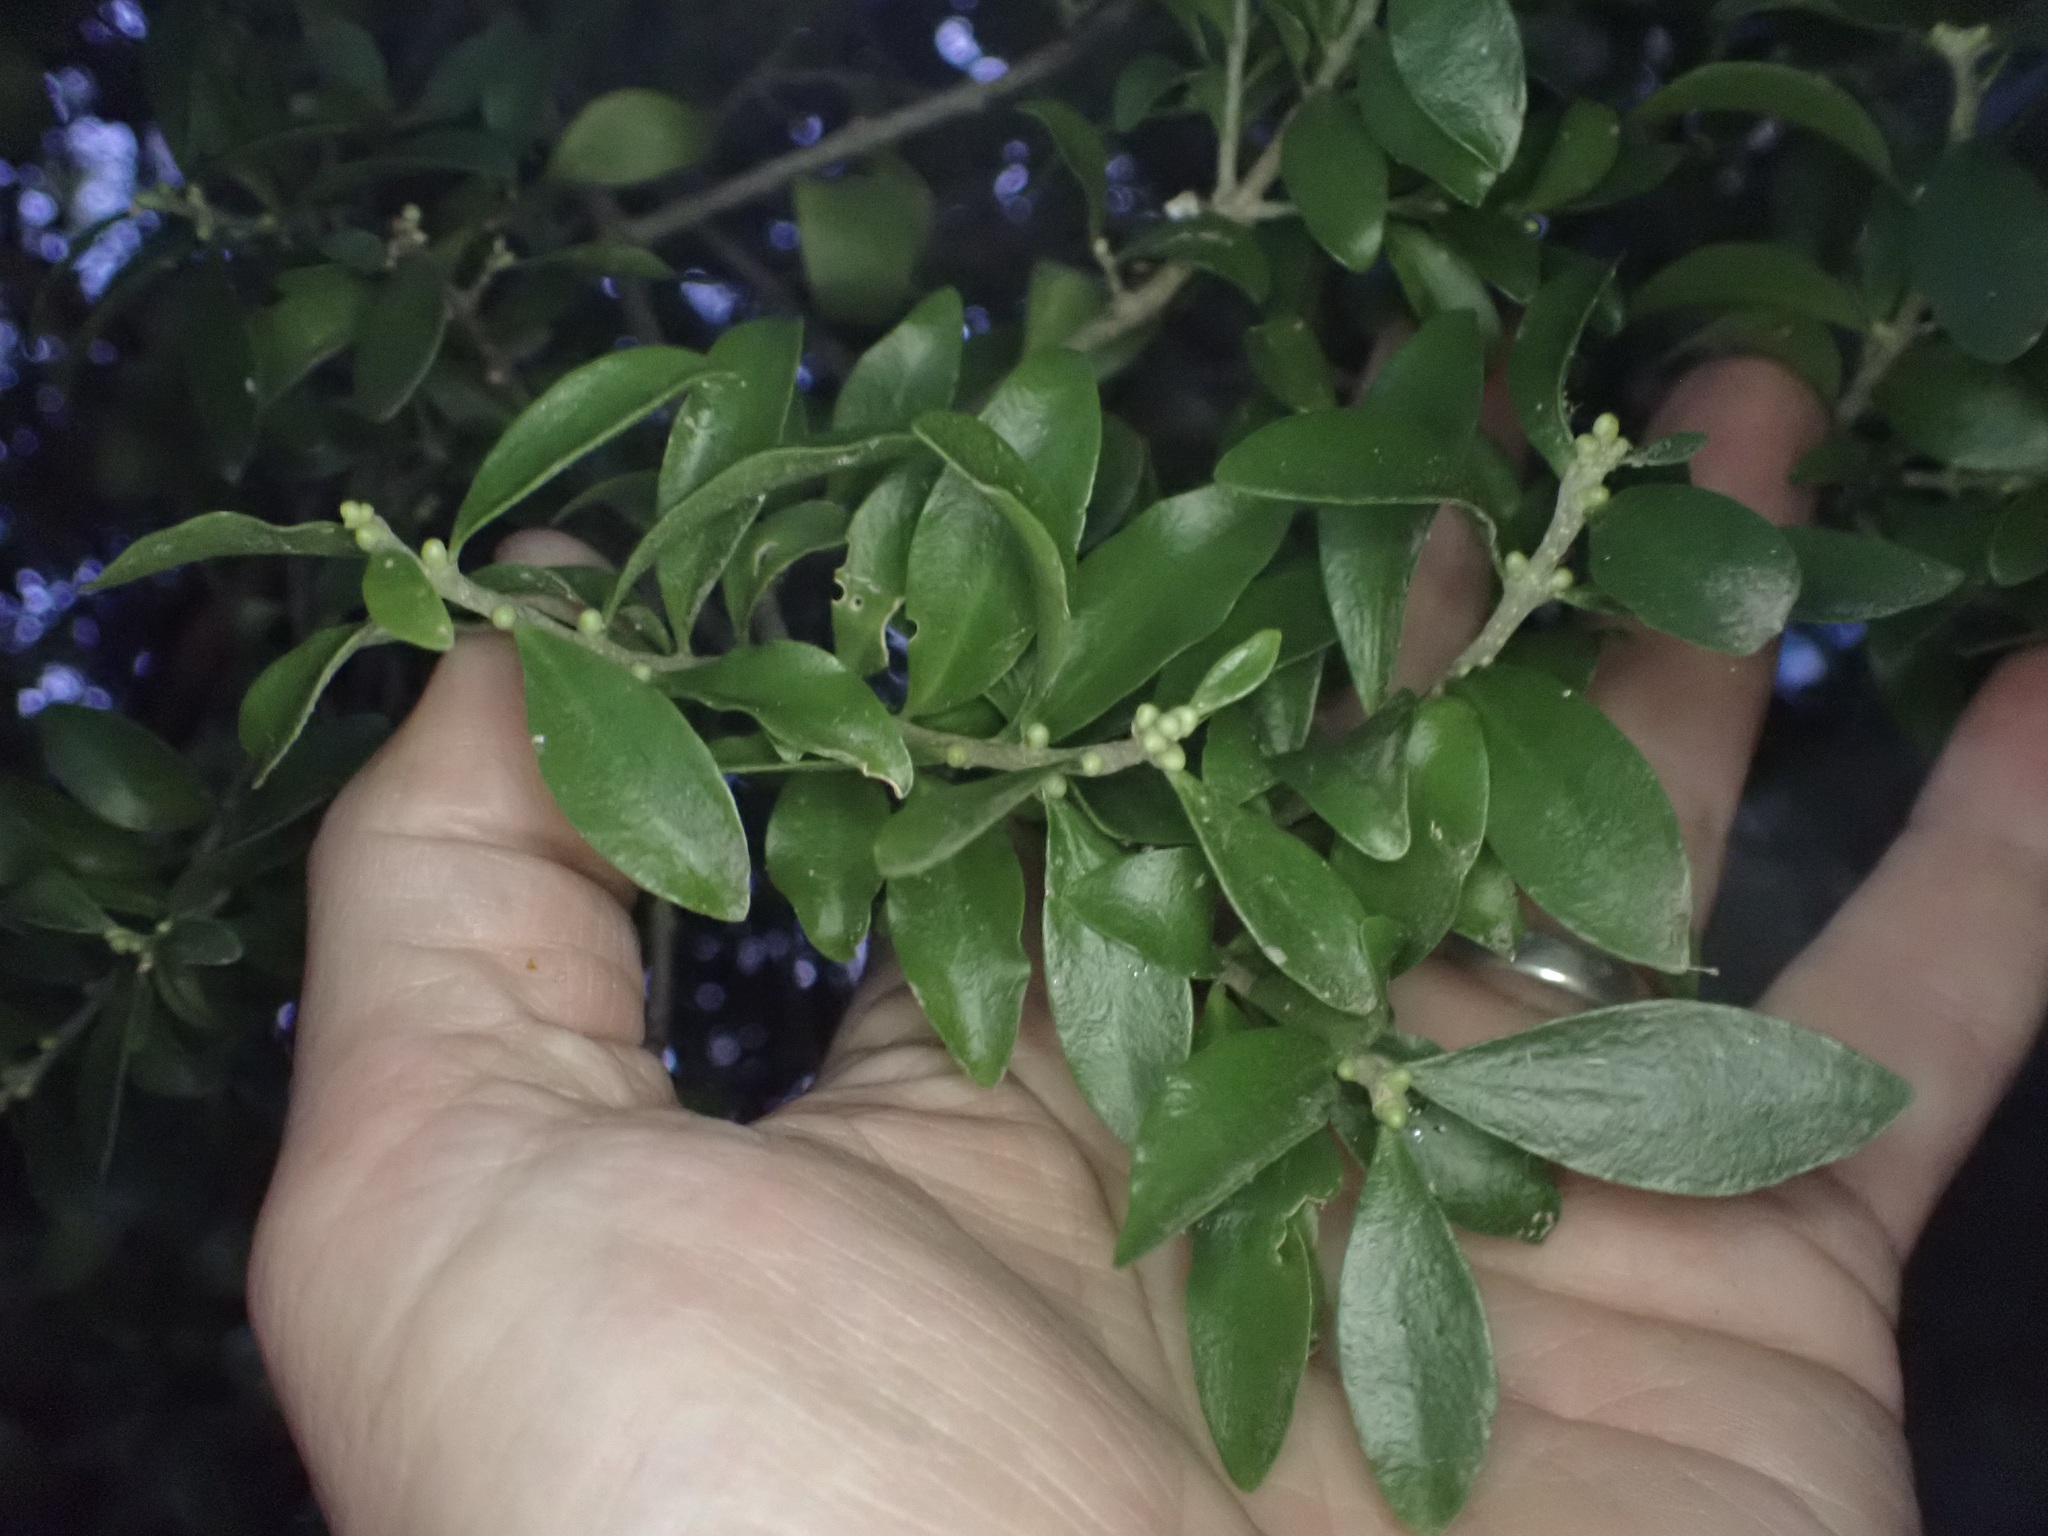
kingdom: Plantae
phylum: Tracheophyta
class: Magnoliopsida
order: Santalales
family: Loranthaceae
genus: Tupeia
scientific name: Tupeia antarctica
